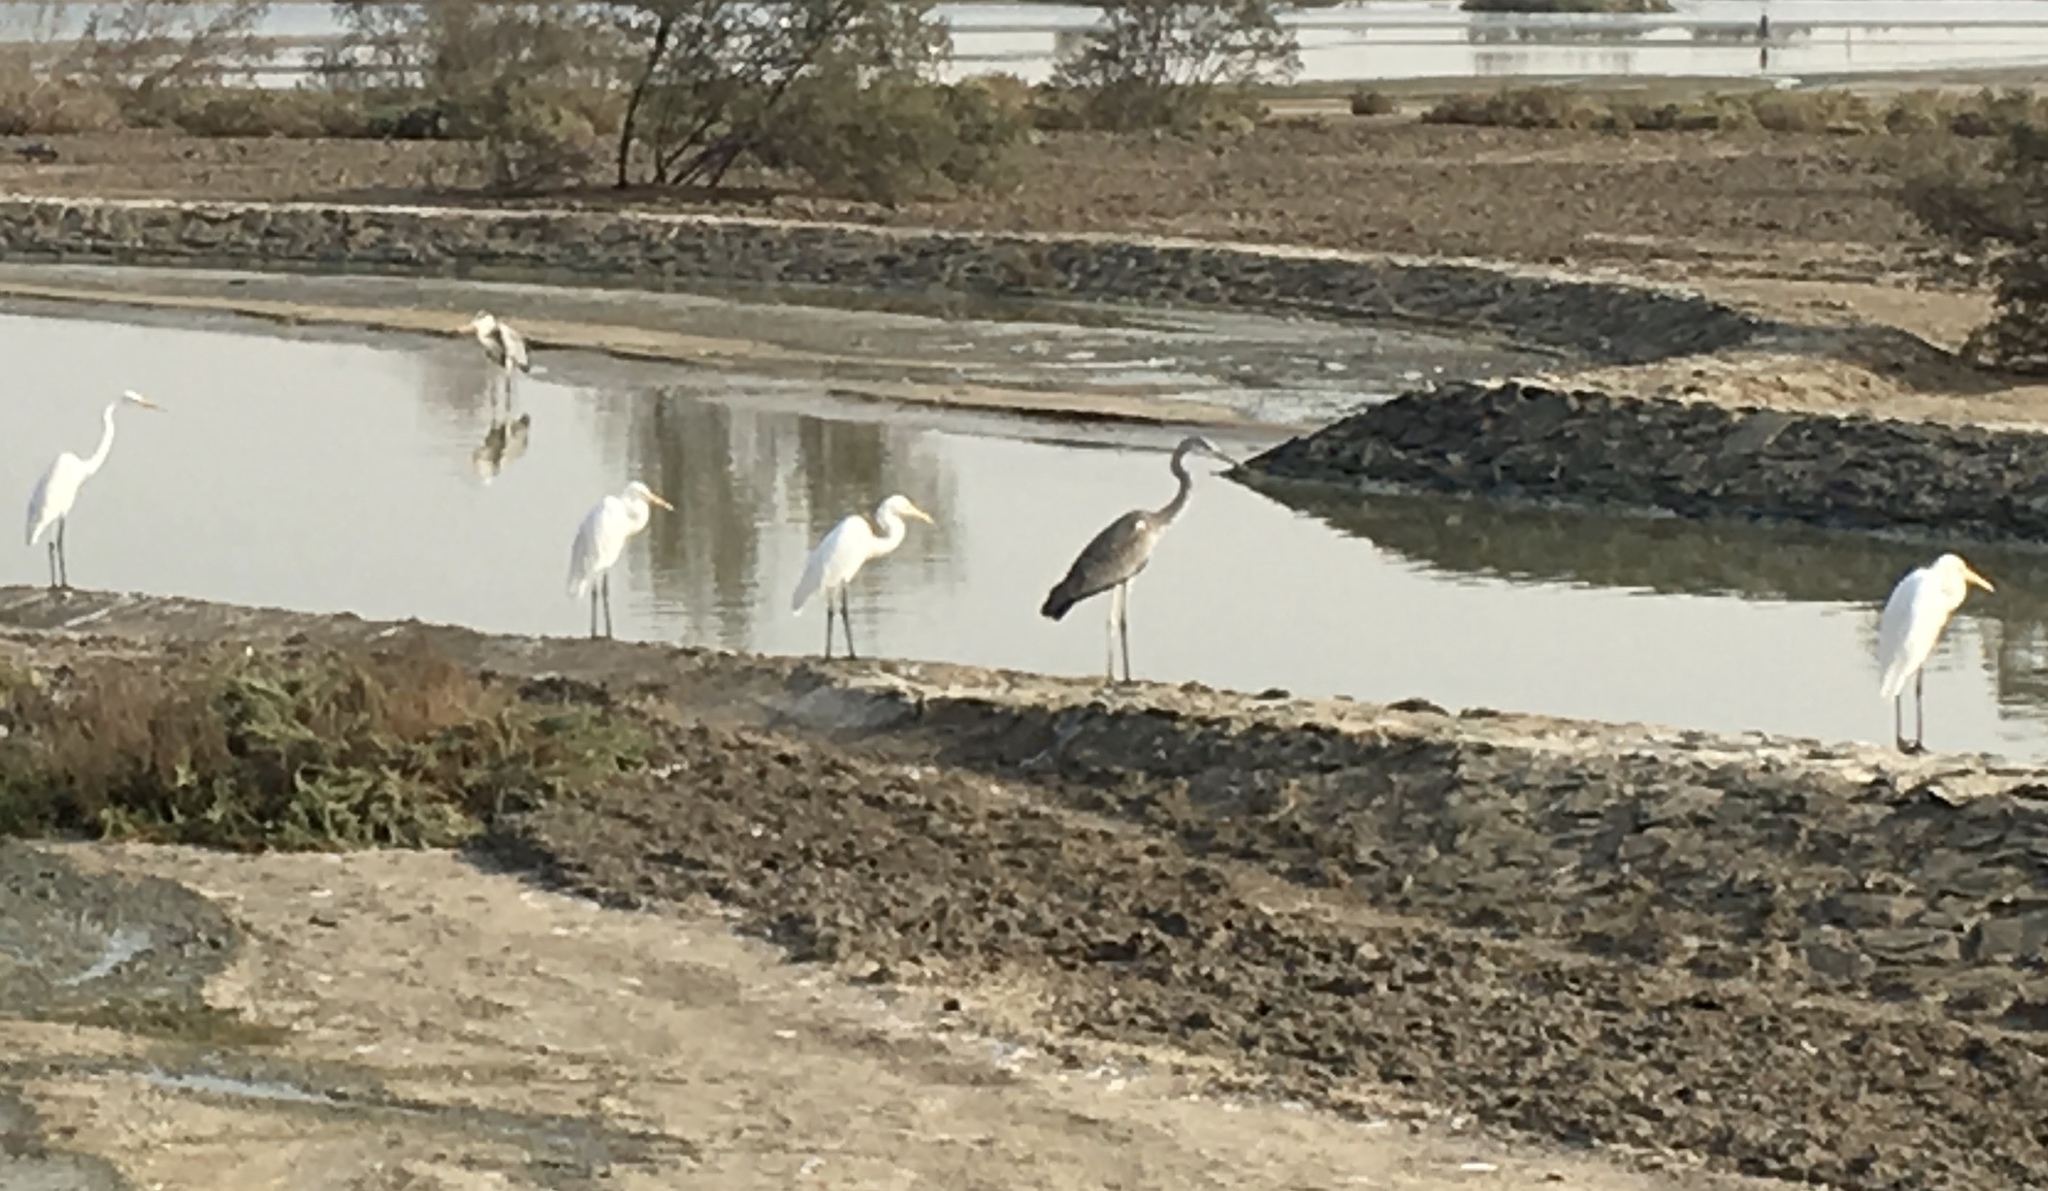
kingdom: Animalia
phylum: Chordata
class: Aves
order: Pelecaniformes
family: Ardeidae
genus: Ardea
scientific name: Ardea alba
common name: Great egret
